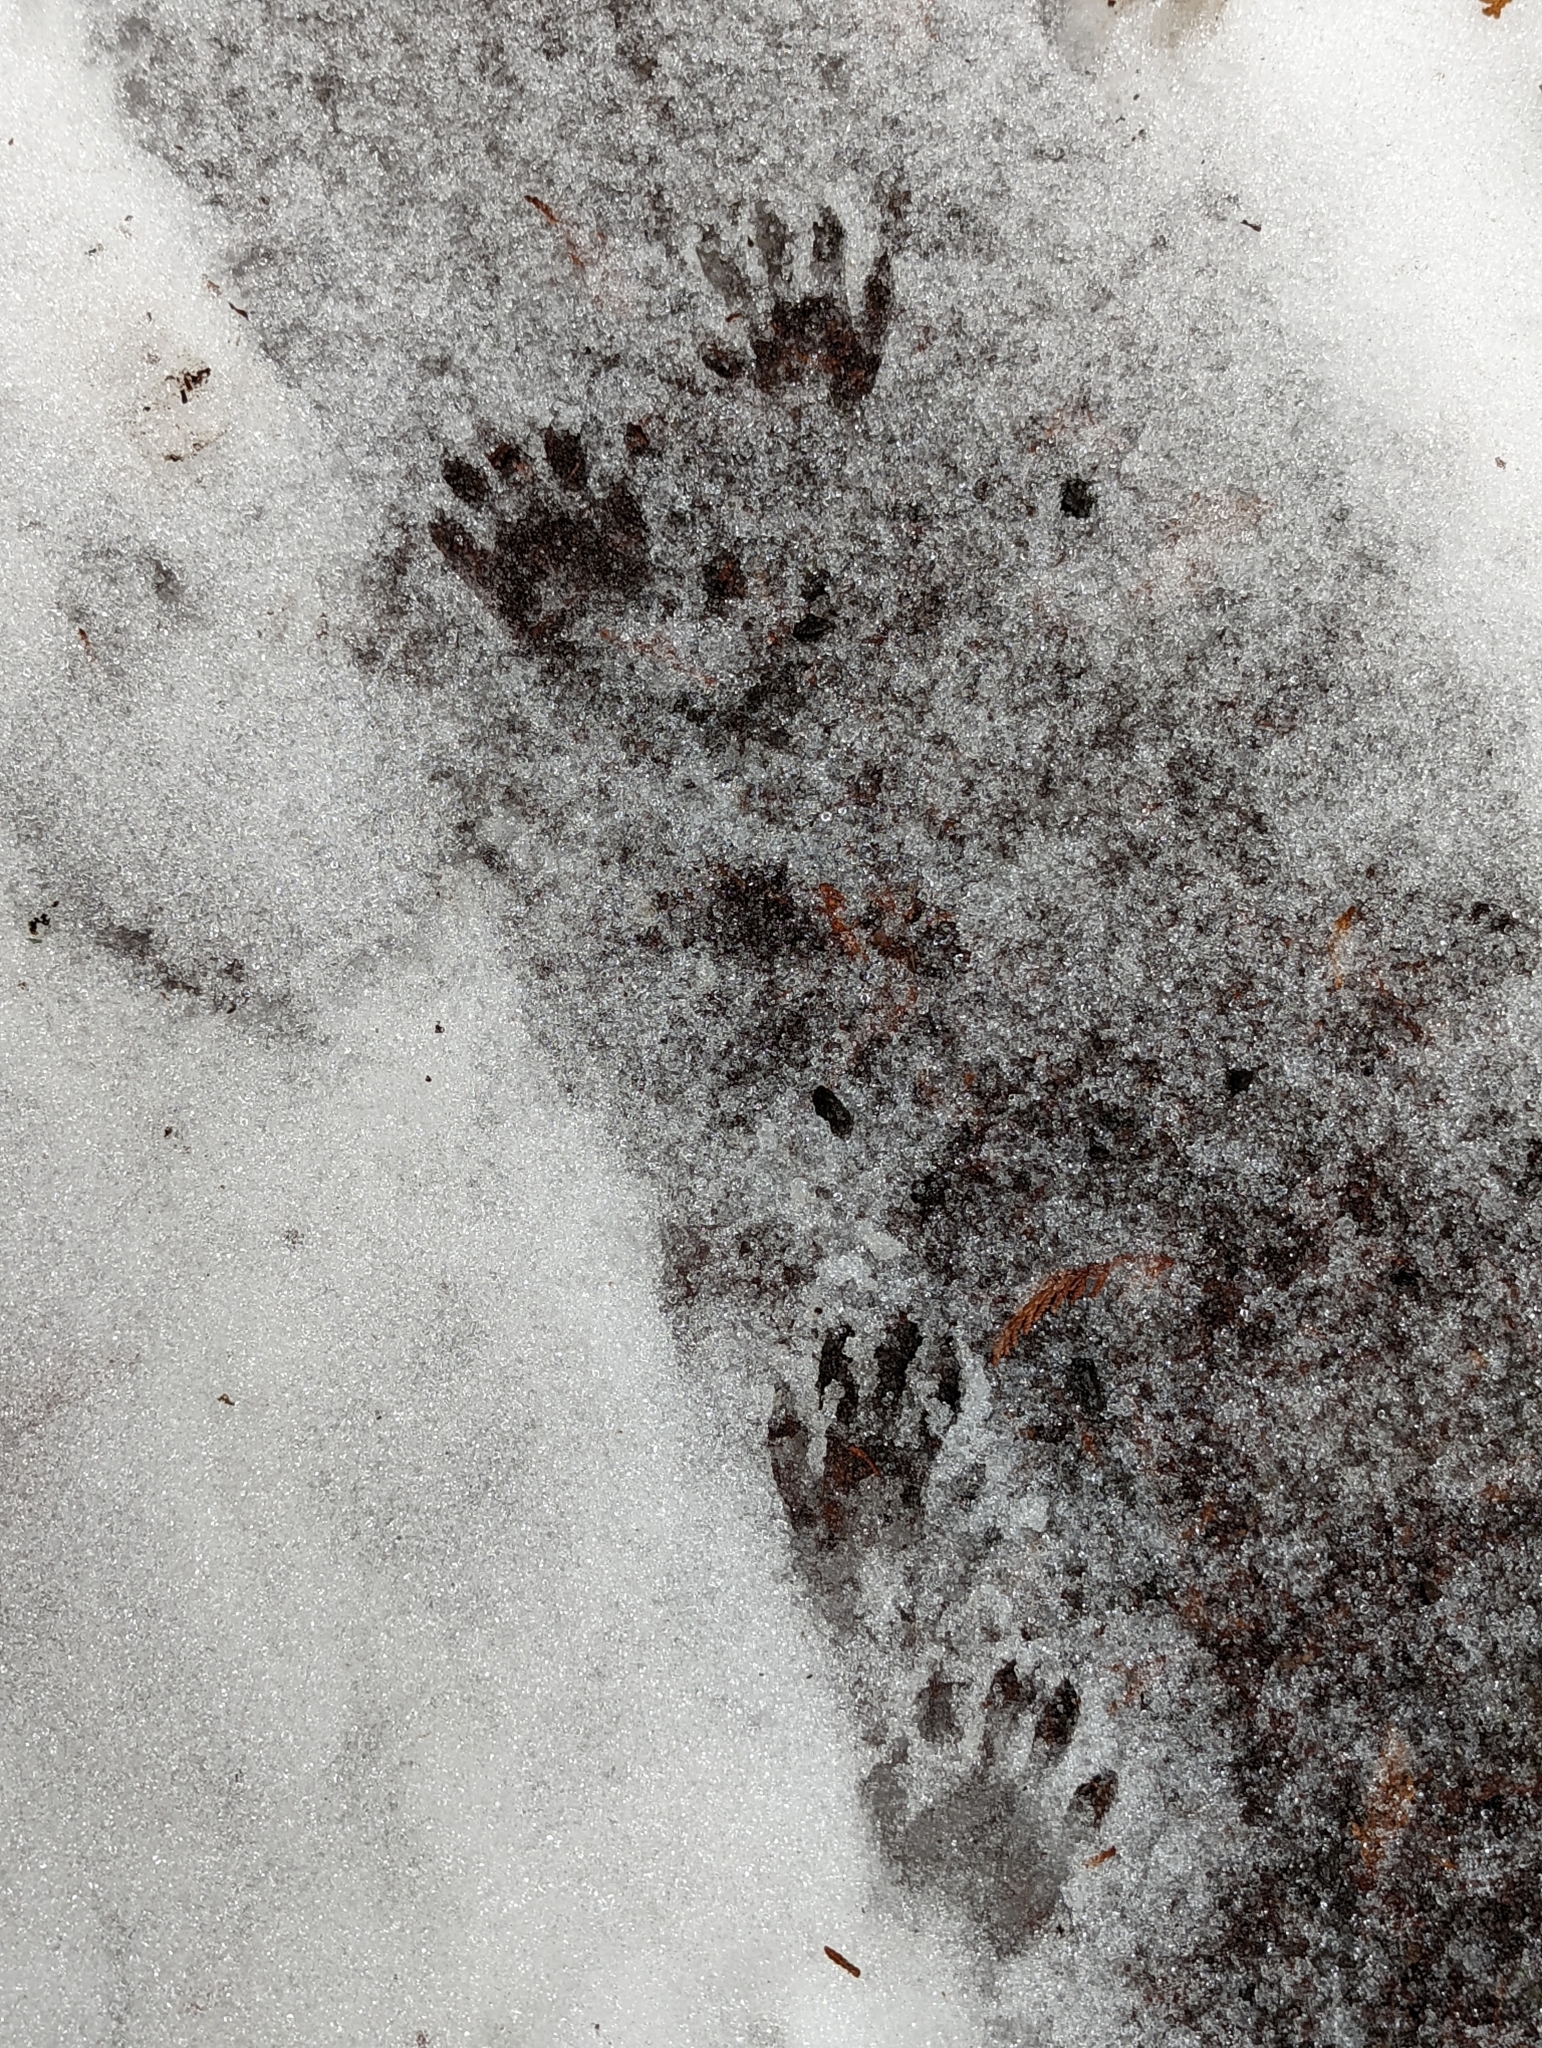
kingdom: Animalia
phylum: Chordata
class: Mammalia
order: Carnivora
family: Procyonidae
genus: Procyon
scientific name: Procyon lotor
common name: Raccoon
